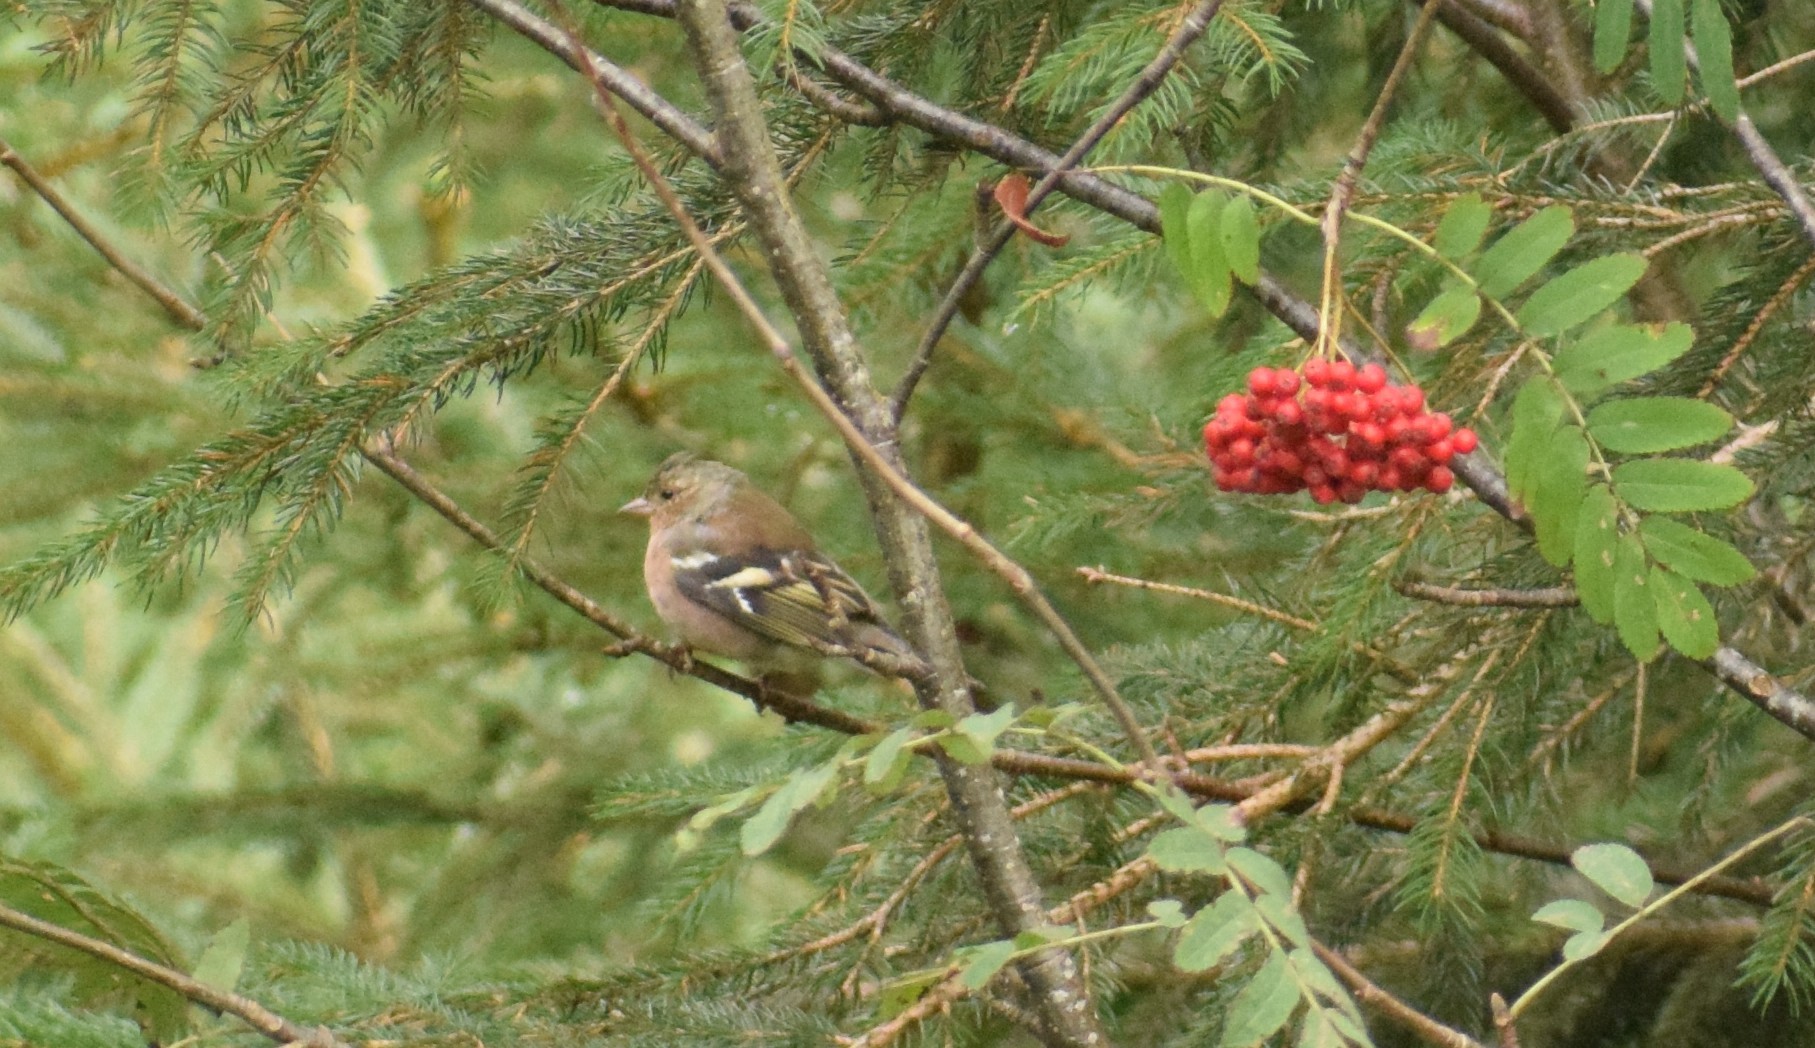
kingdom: Animalia
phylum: Chordata
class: Aves
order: Passeriformes
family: Fringillidae
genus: Fringilla
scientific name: Fringilla coelebs
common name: Common chaffinch
